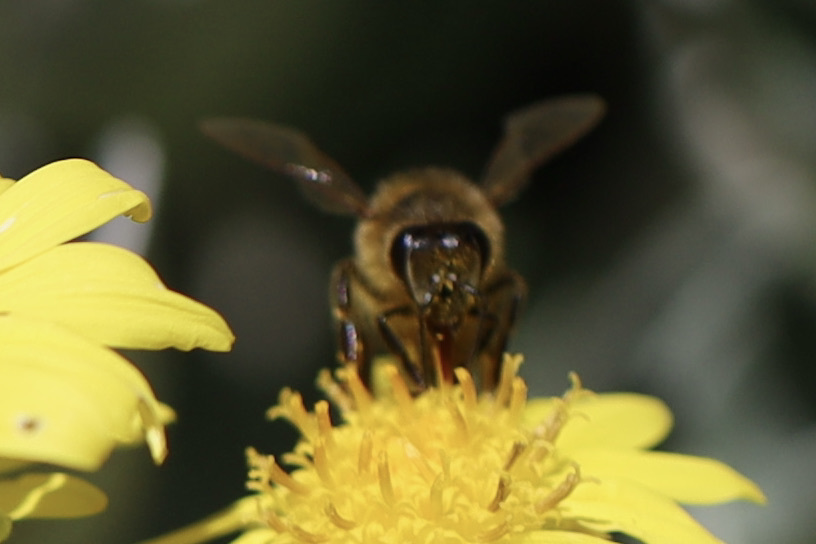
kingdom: Animalia
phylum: Arthropoda
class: Insecta
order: Hymenoptera
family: Apidae
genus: Apis
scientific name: Apis mellifera
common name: Honey bee
